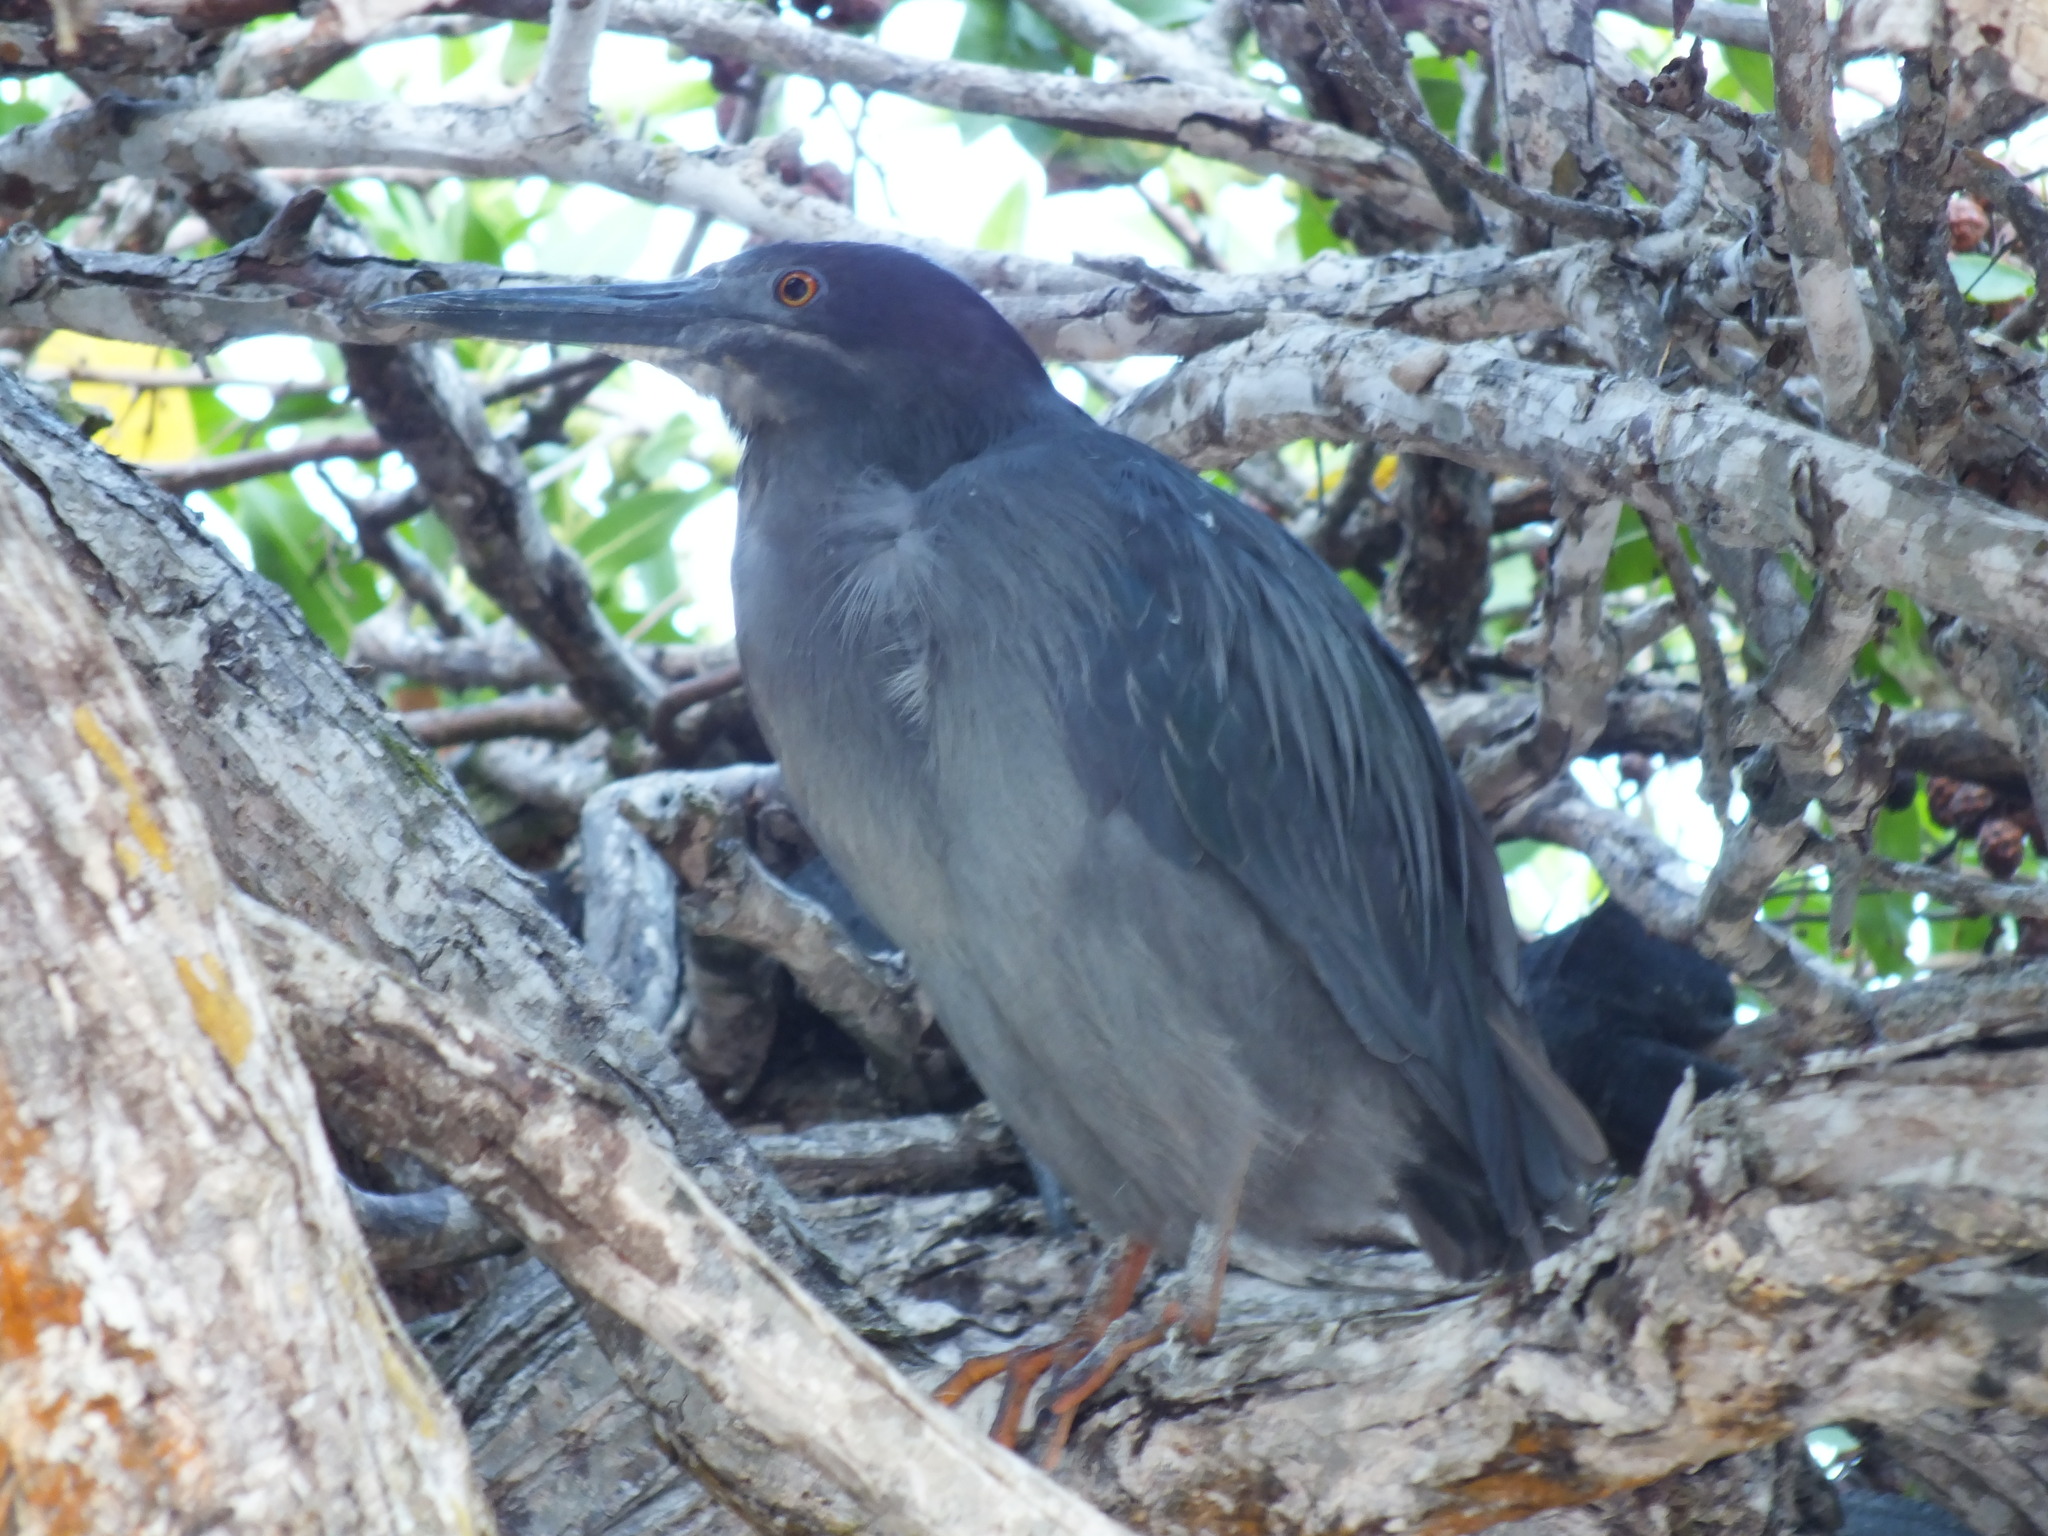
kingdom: Animalia
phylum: Chordata
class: Aves
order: Pelecaniformes
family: Ardeidae
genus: Butorides
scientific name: Butorides striata
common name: Striated heron
